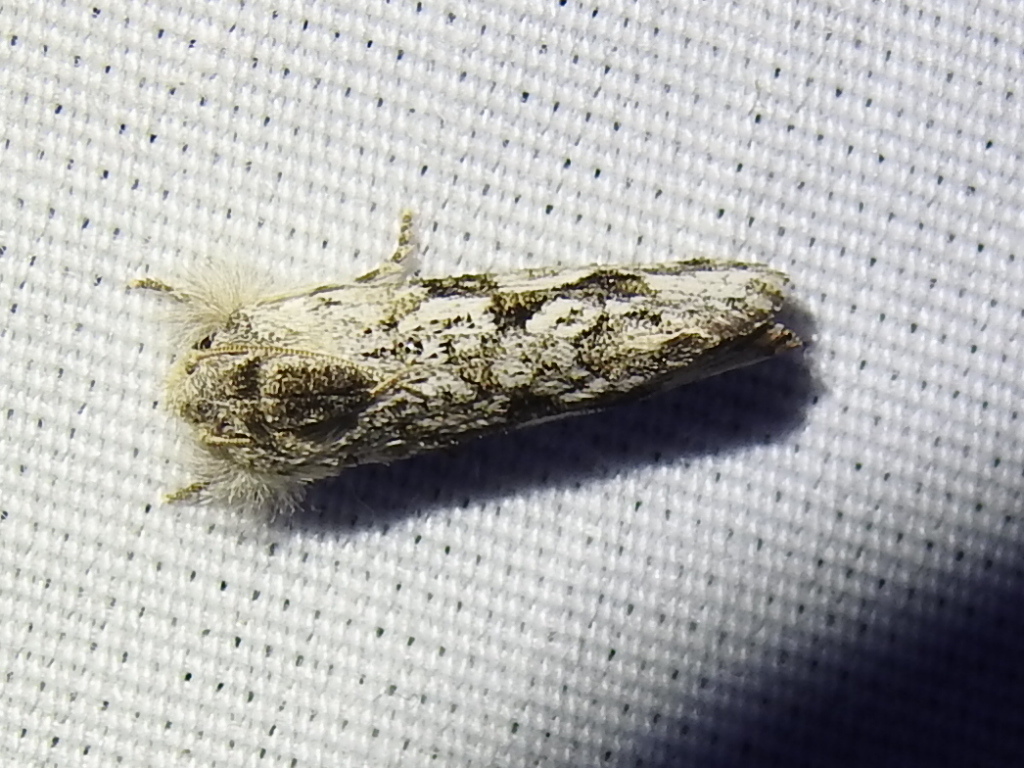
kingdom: Animalia
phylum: Arthropoda
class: Insecta
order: Lepidoptera
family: Tineidae
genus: Acrolophus
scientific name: Acrolophus griseus
